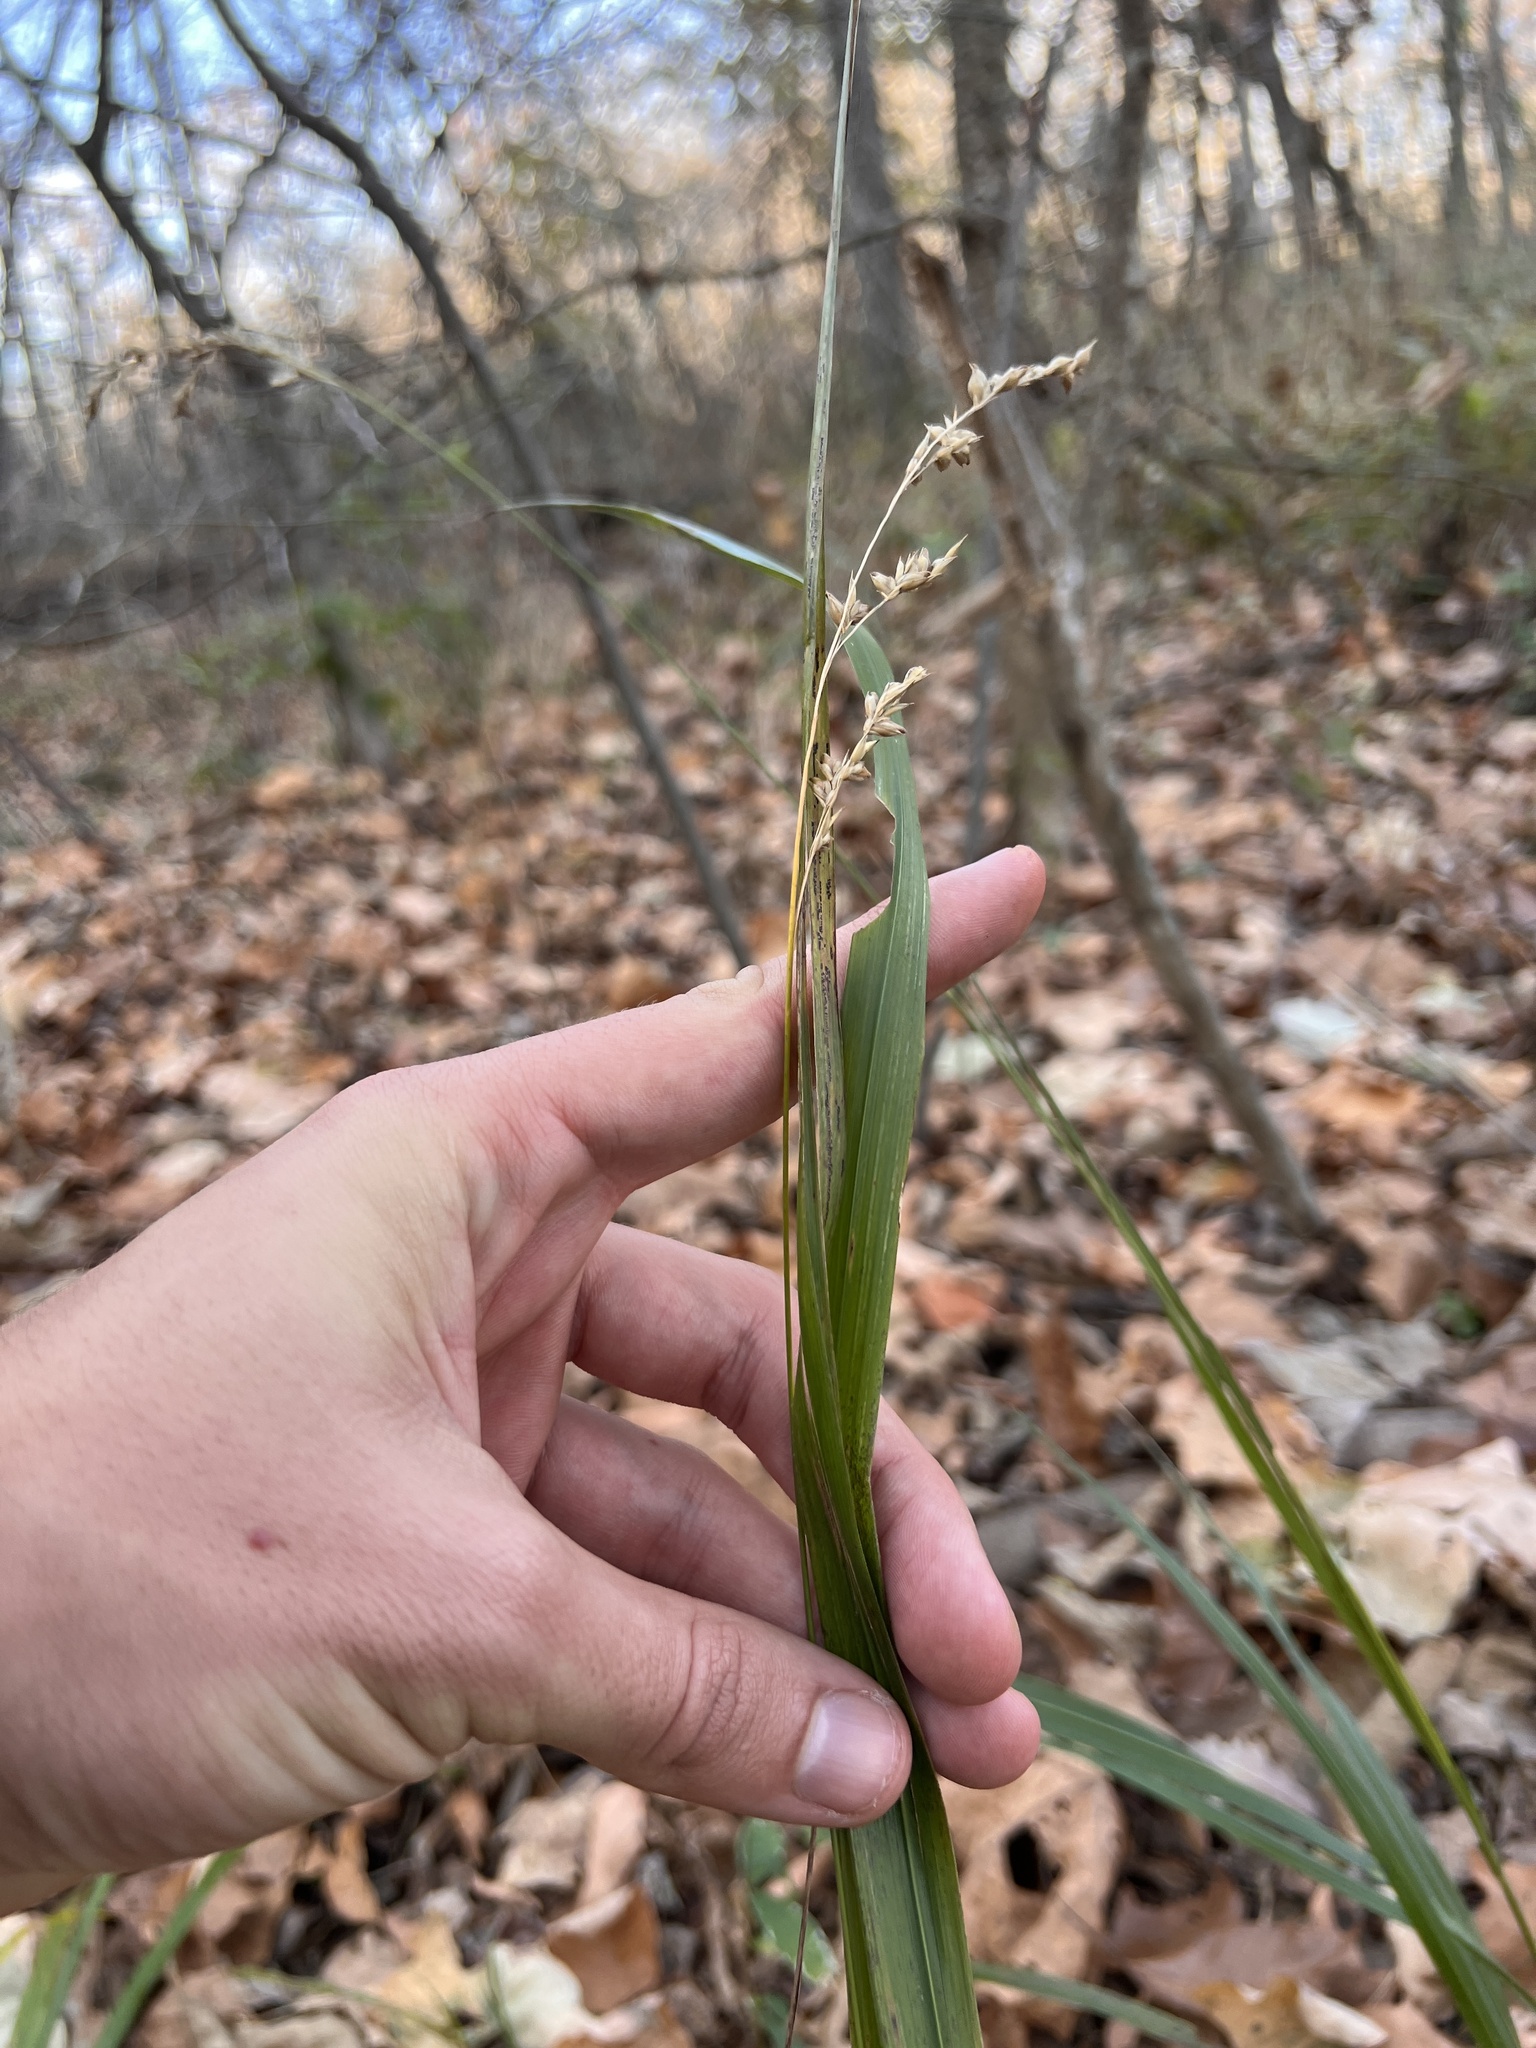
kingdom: Plantae
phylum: Tracheophyta
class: Liliopsida
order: Poales
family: Poaceae
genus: Diarrhena
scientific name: Diarrhena obovata
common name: Beakgrass
